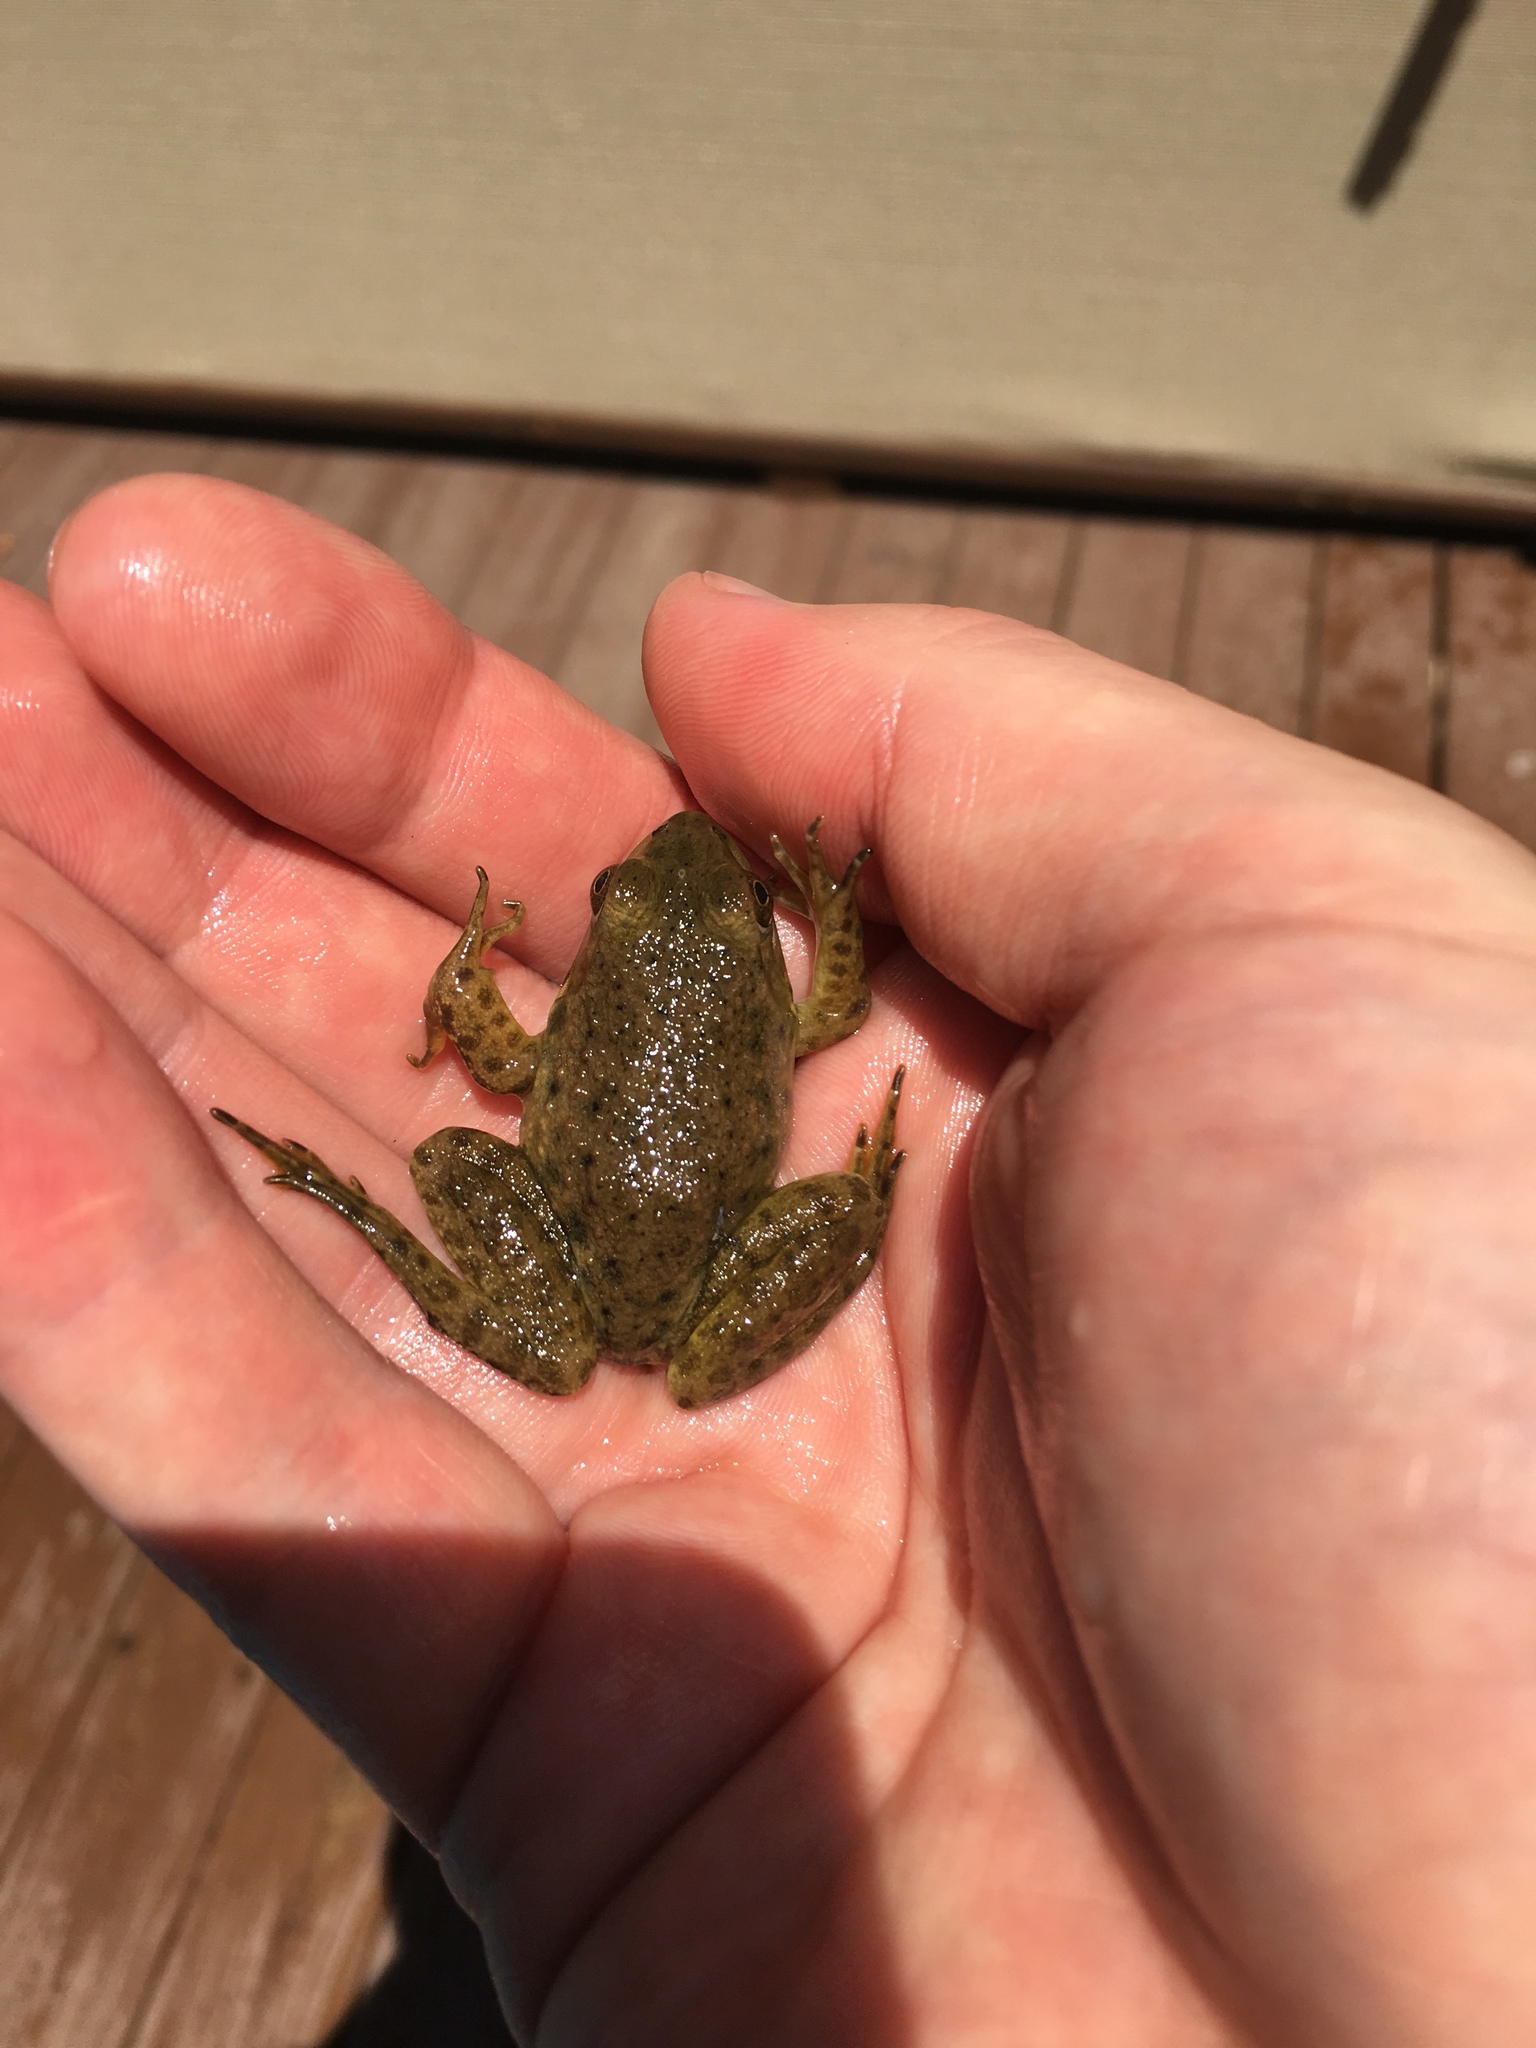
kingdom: Animalia
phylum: Chordata
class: Amphibia
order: Anura
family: Ranidae
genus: Lithobates
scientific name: Lithobates catesbeianus
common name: American bullfrog
